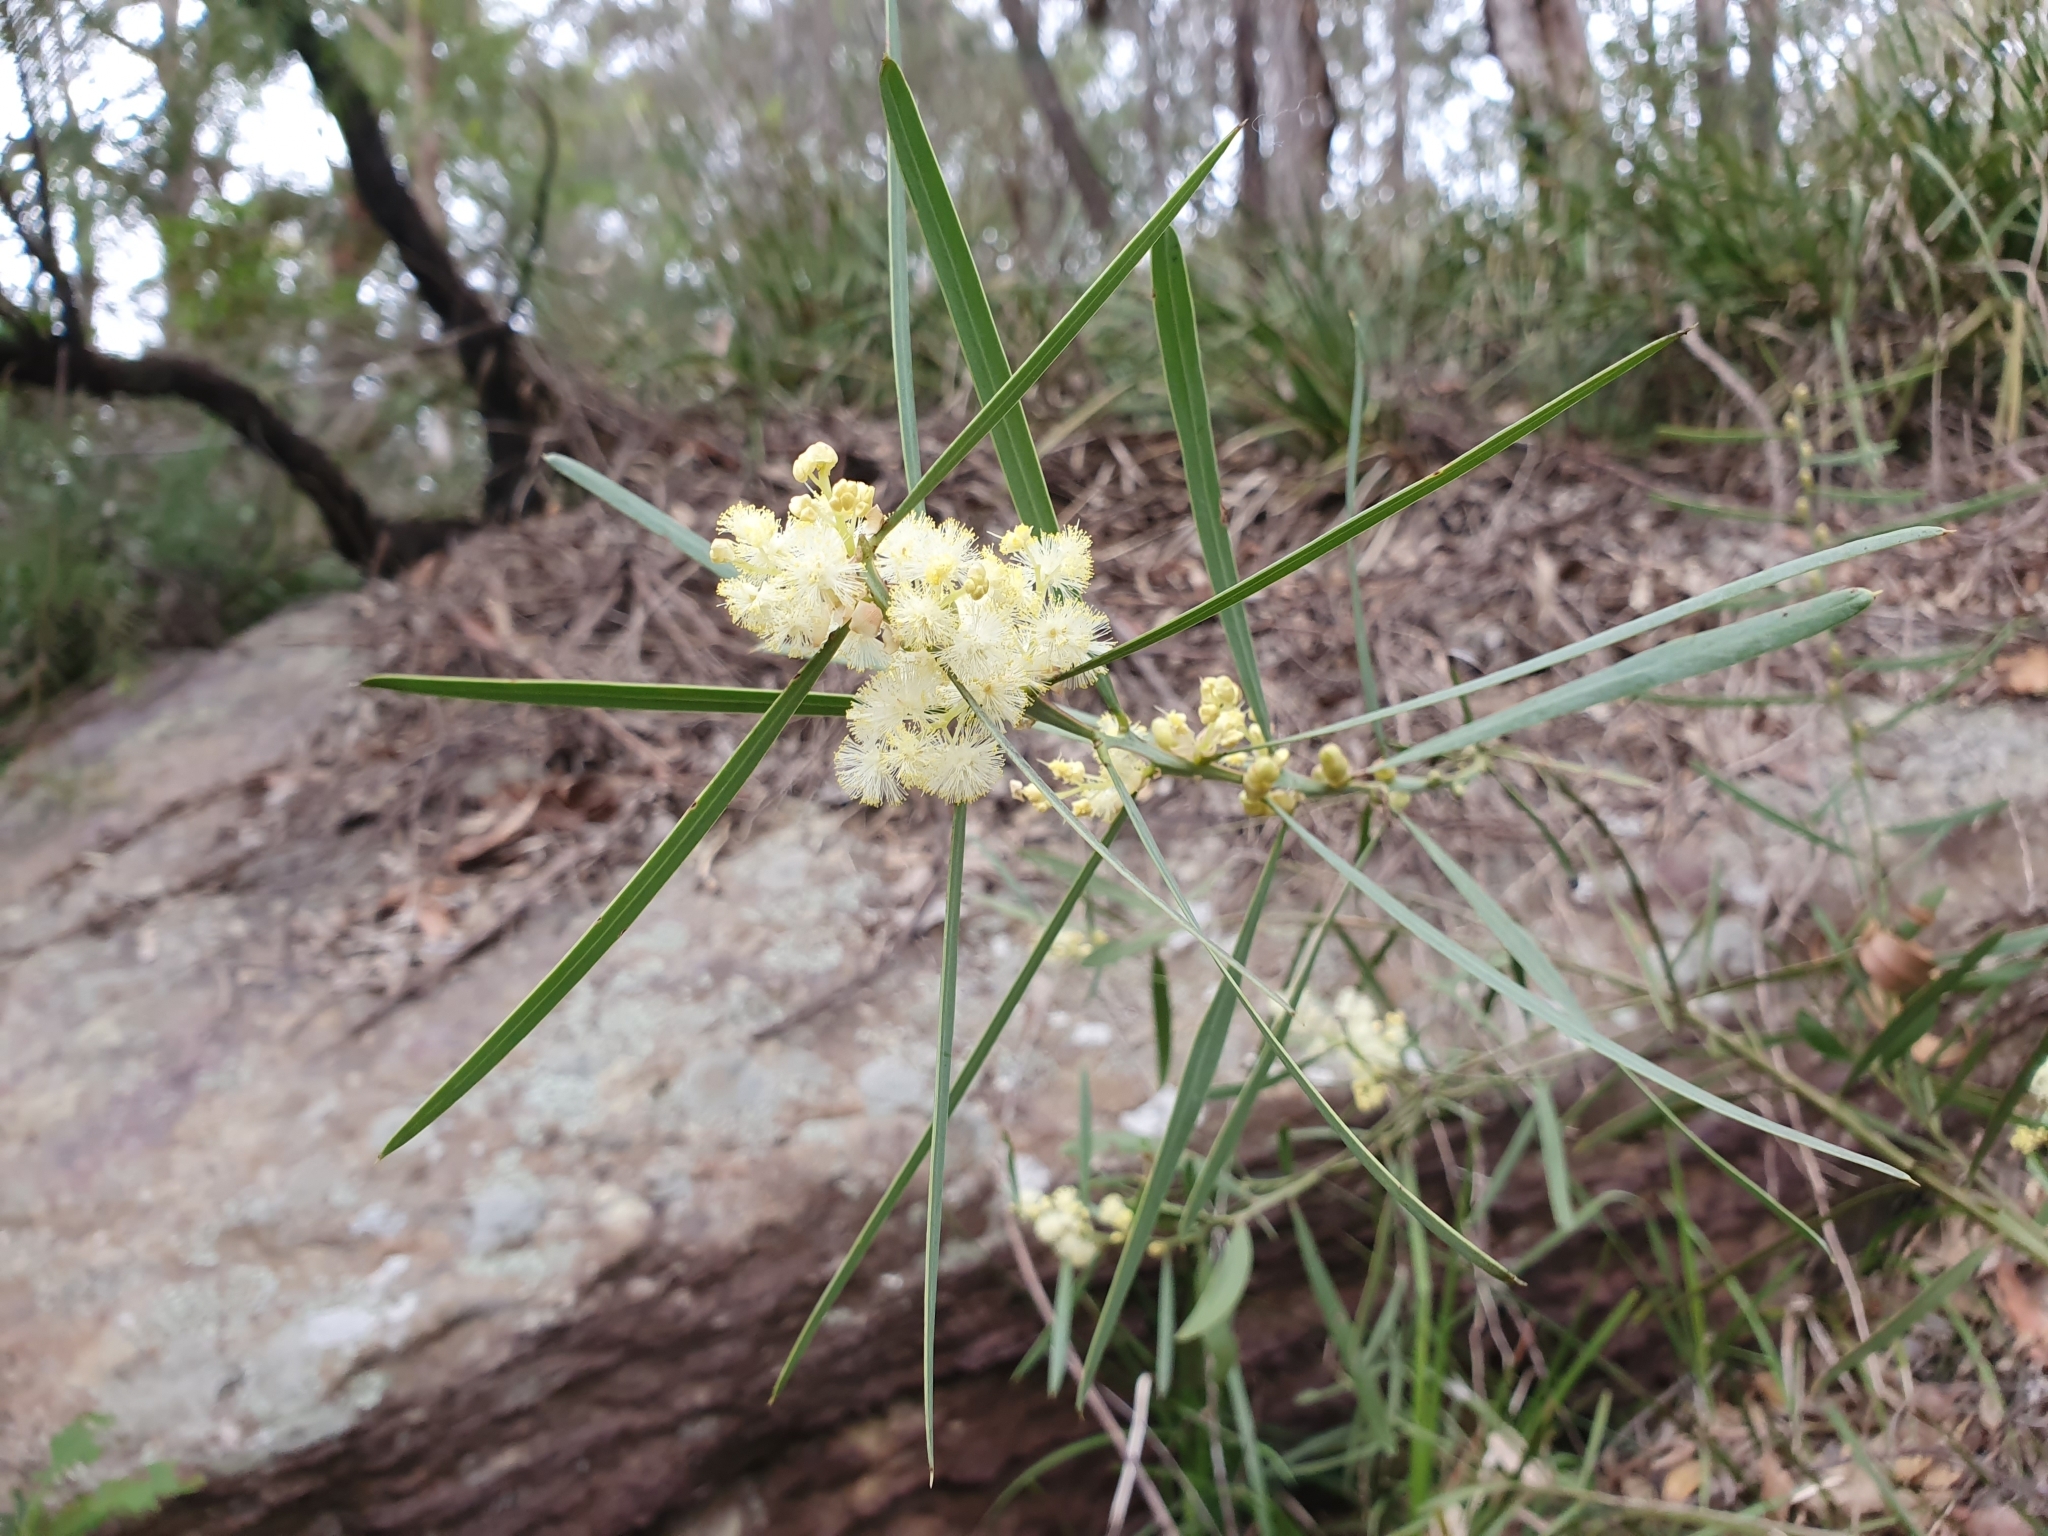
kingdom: Plantae
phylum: Tracheophyta
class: Magnoliopsida
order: Fabales
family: Fabaceae
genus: Acacia
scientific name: Acacia suaveolens
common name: Sweet acacia
